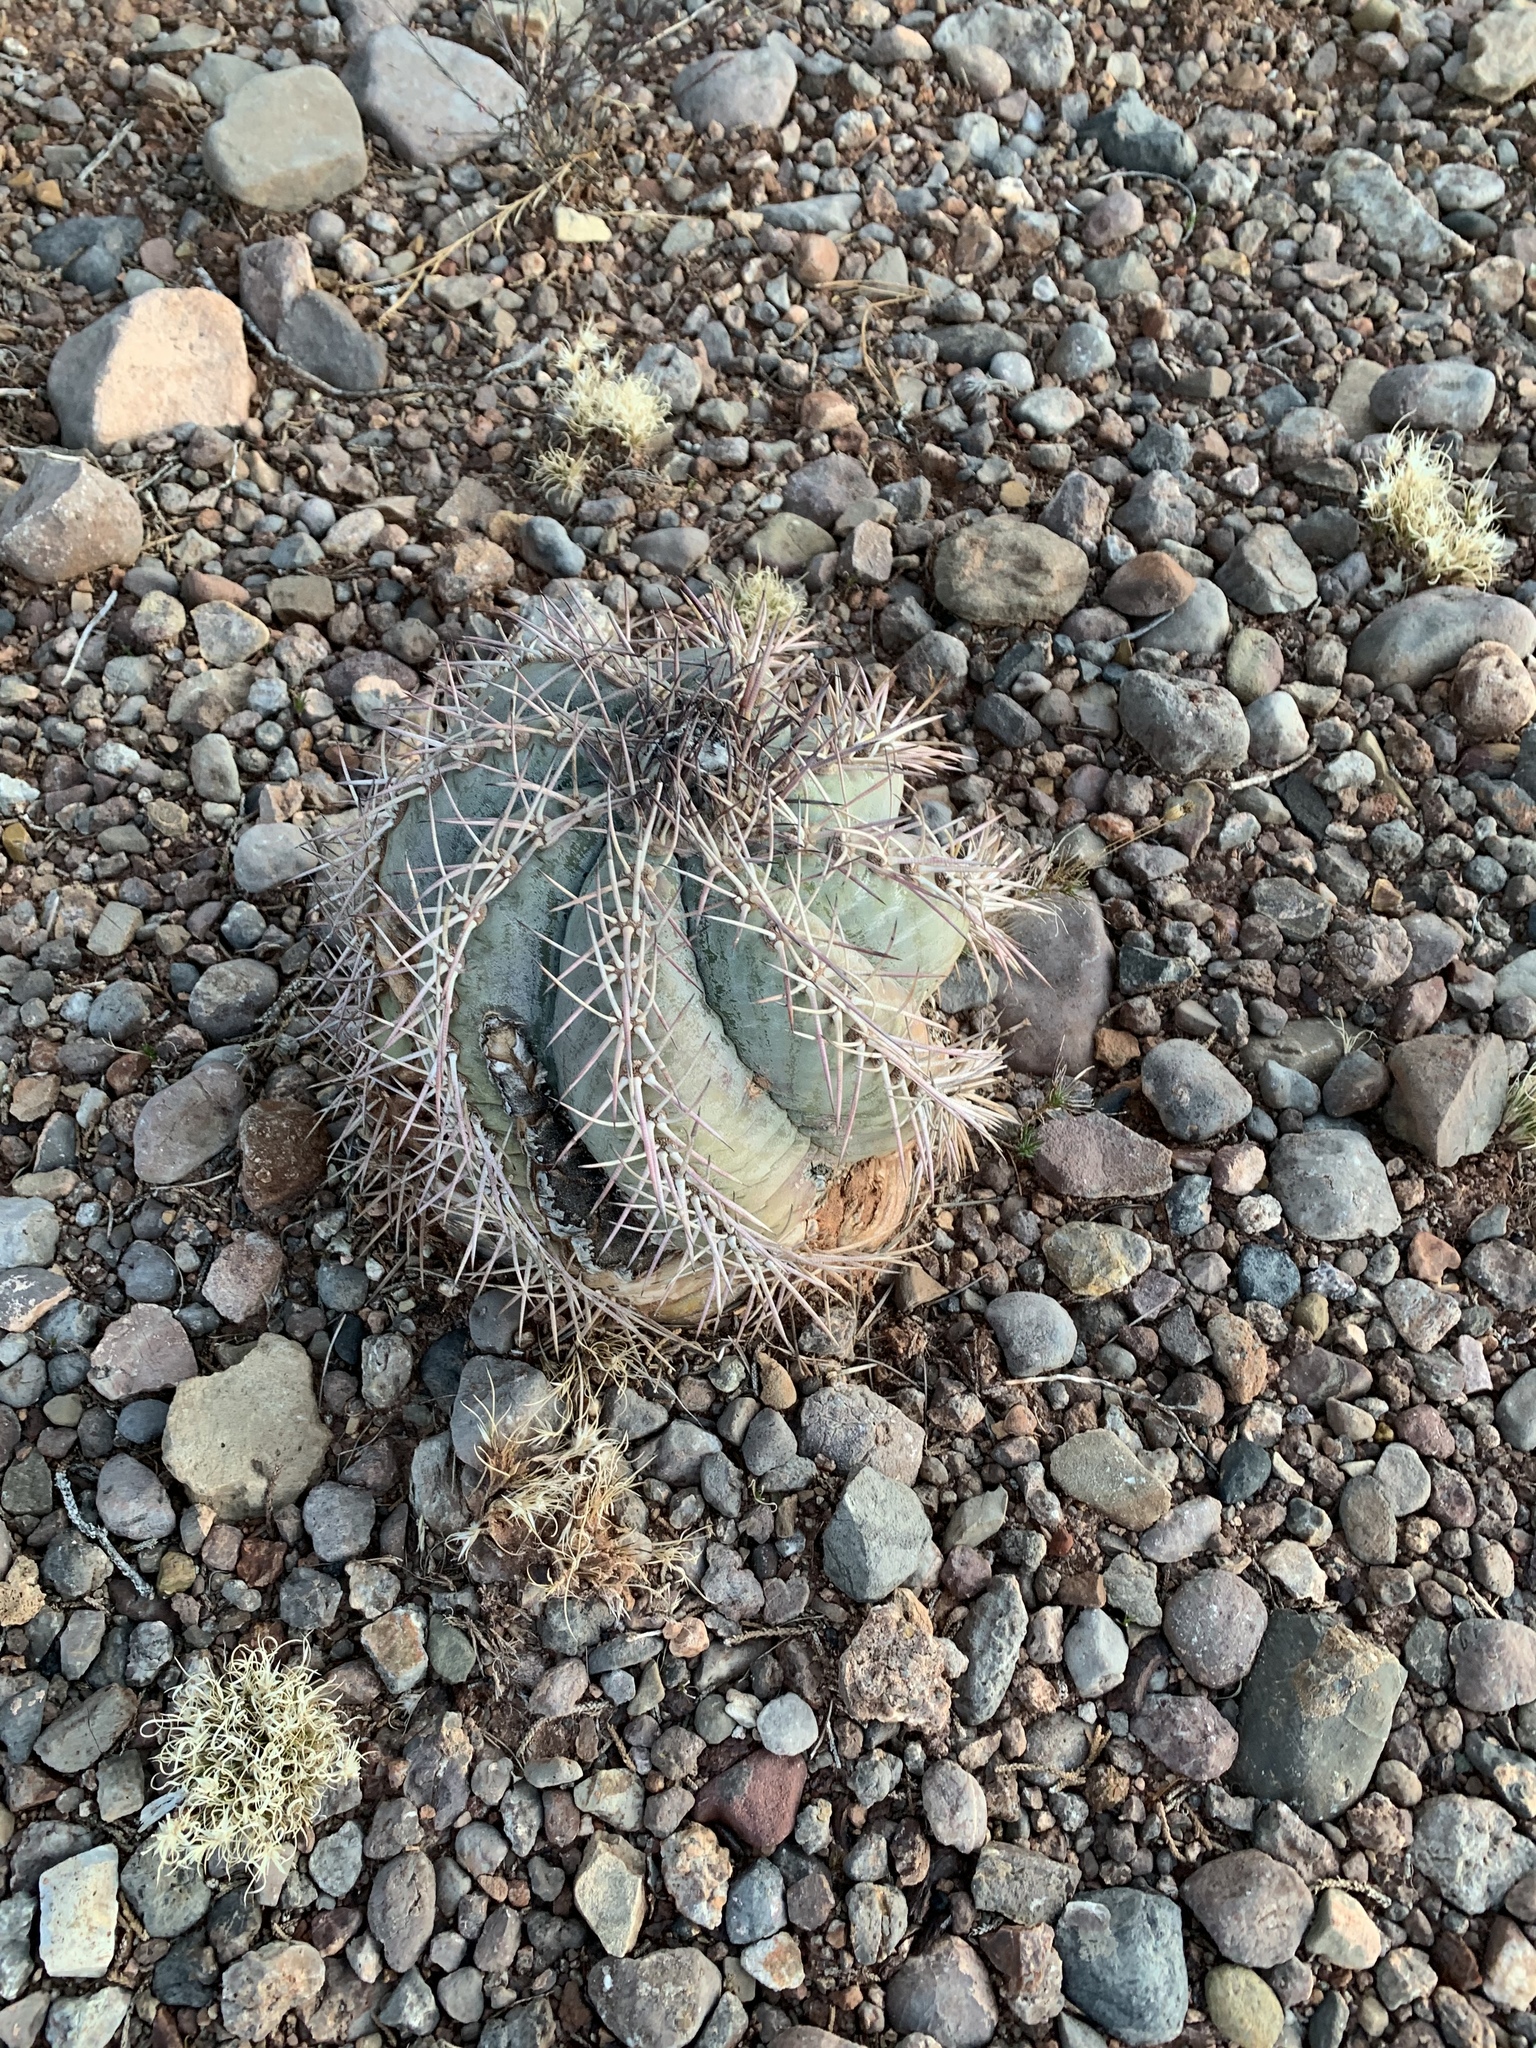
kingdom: Plantae
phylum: Tracheophyta
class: Magnoliopsida
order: Caryophyllales
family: Cactaceae
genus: Echinocactus
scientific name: Echinocactus horizonthalonius
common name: Devilshead
